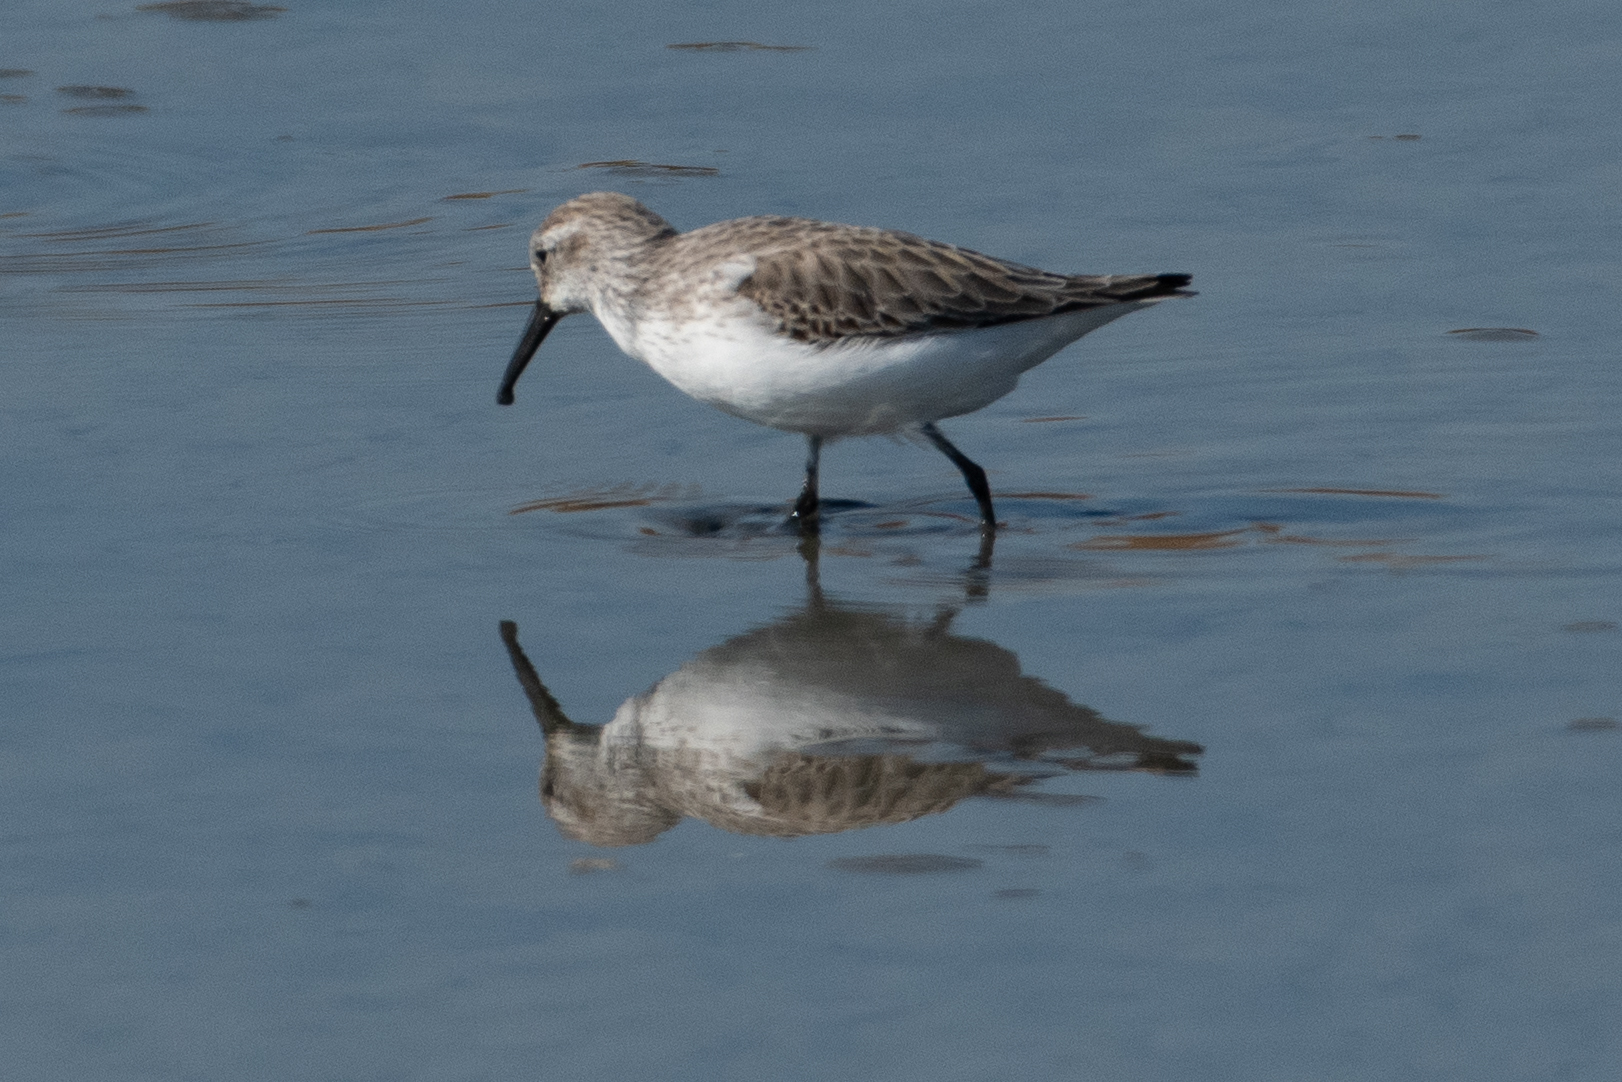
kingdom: Animalia
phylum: Chordata
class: Aves
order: Charadriiformes
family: Scolopacidae
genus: Calidris
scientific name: Calidris mauri
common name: Western sandpiper
